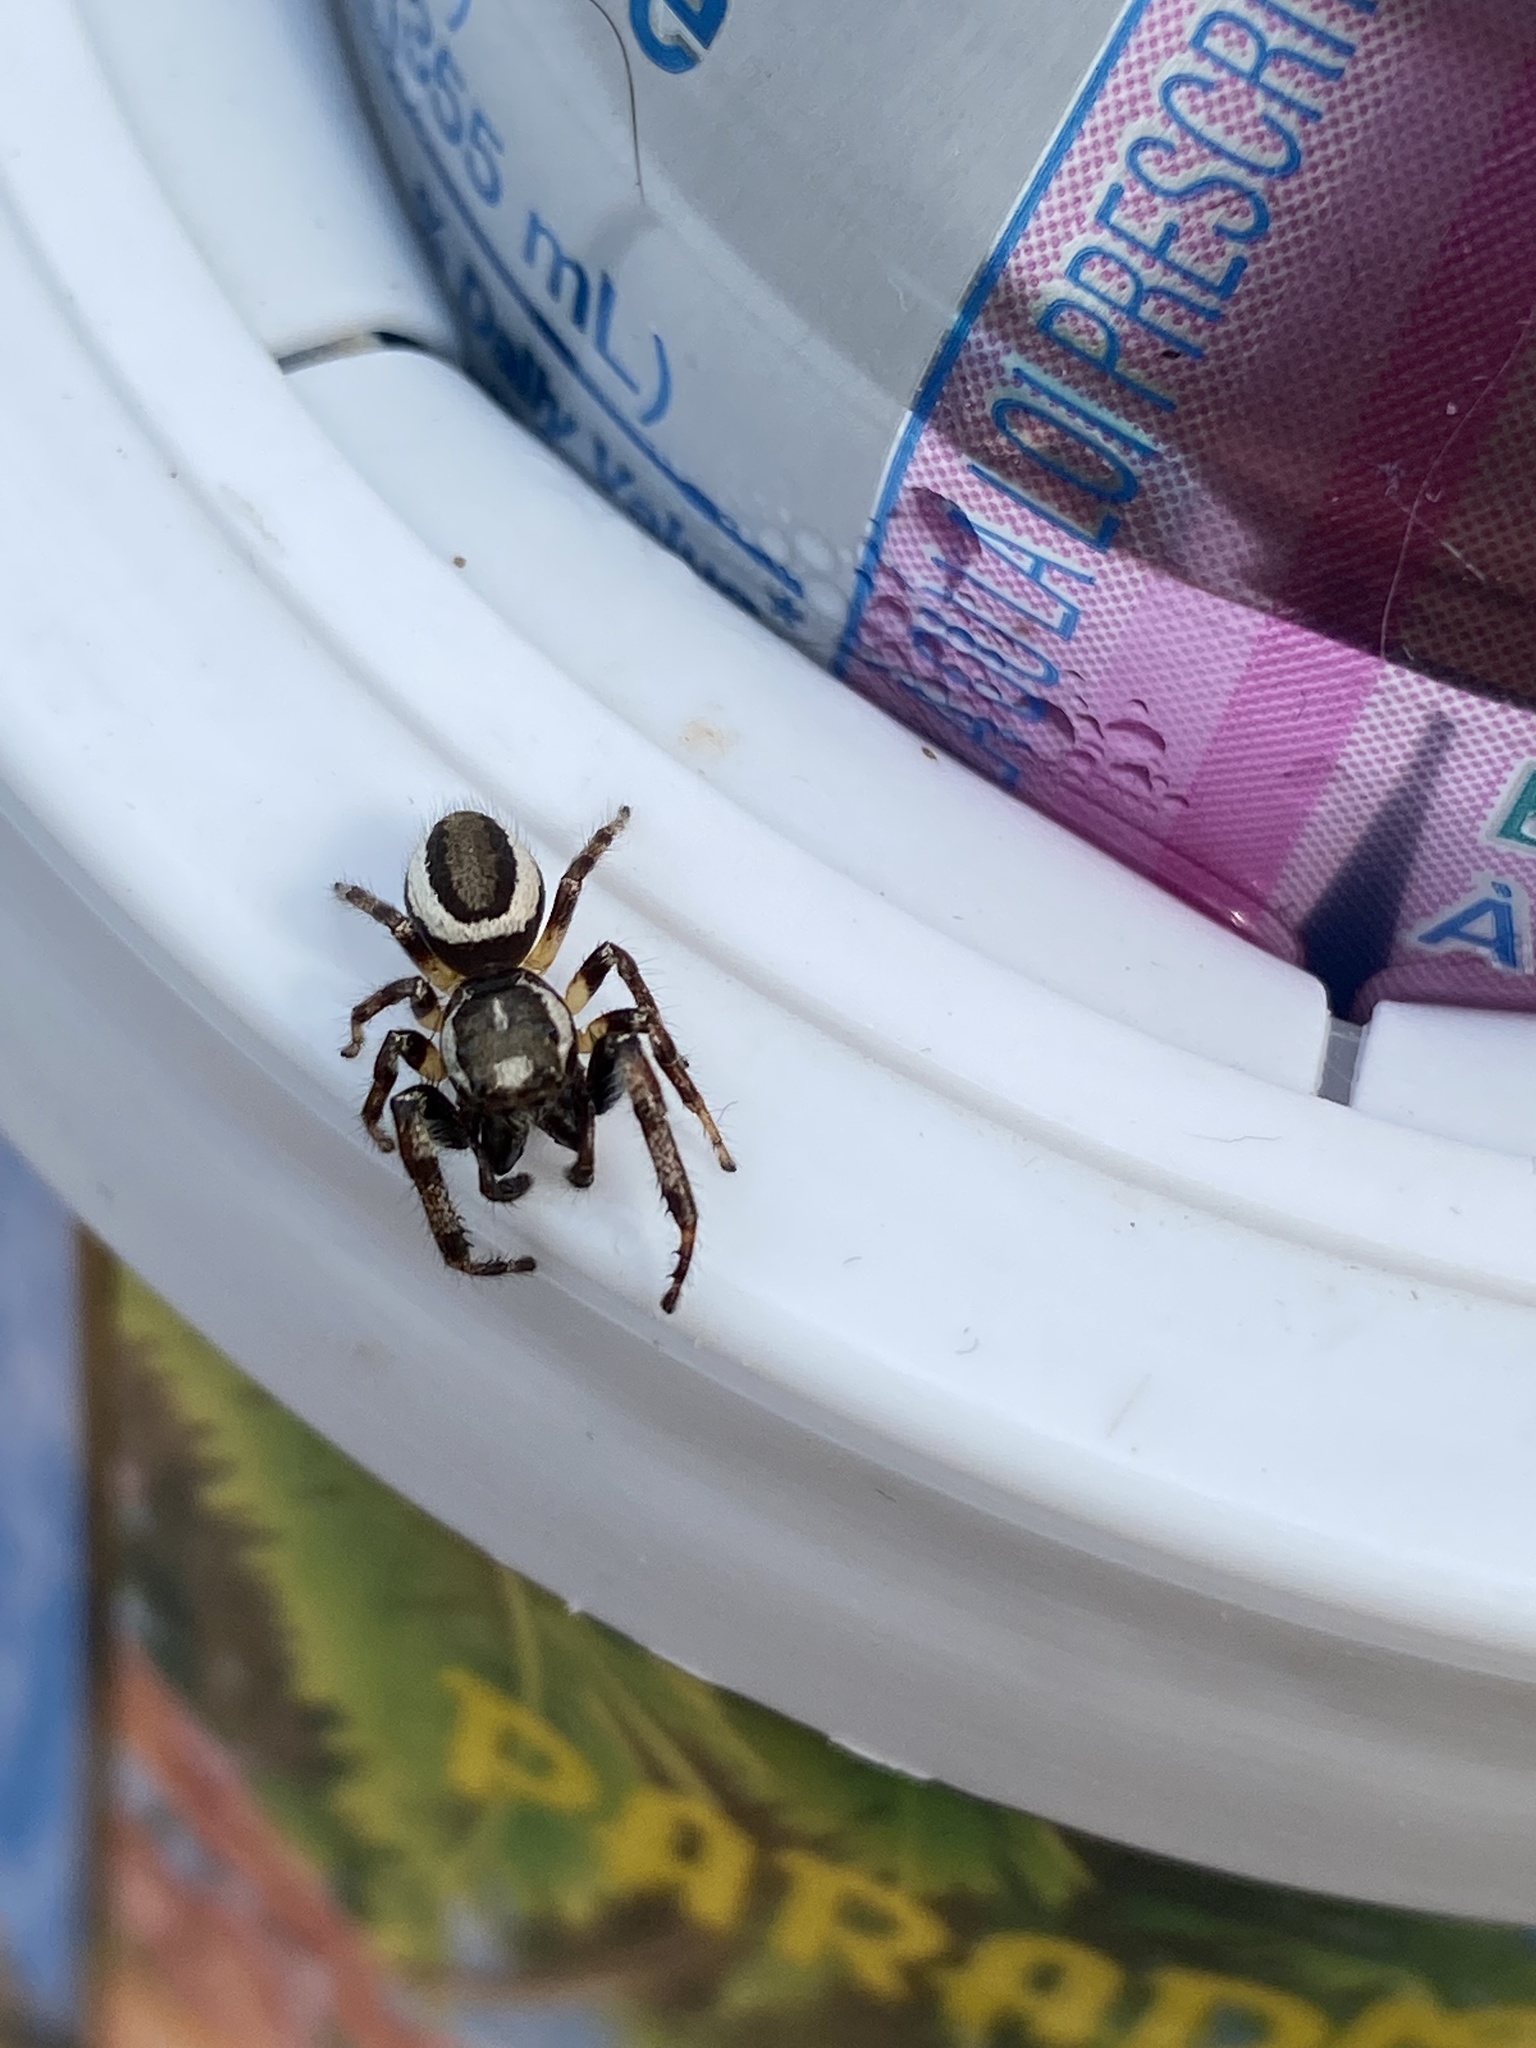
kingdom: Animalia
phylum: Arthropoda
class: Arachnida
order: Araneae
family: Salticidae
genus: Eris
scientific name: Eris militaris
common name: Bronze jumper
